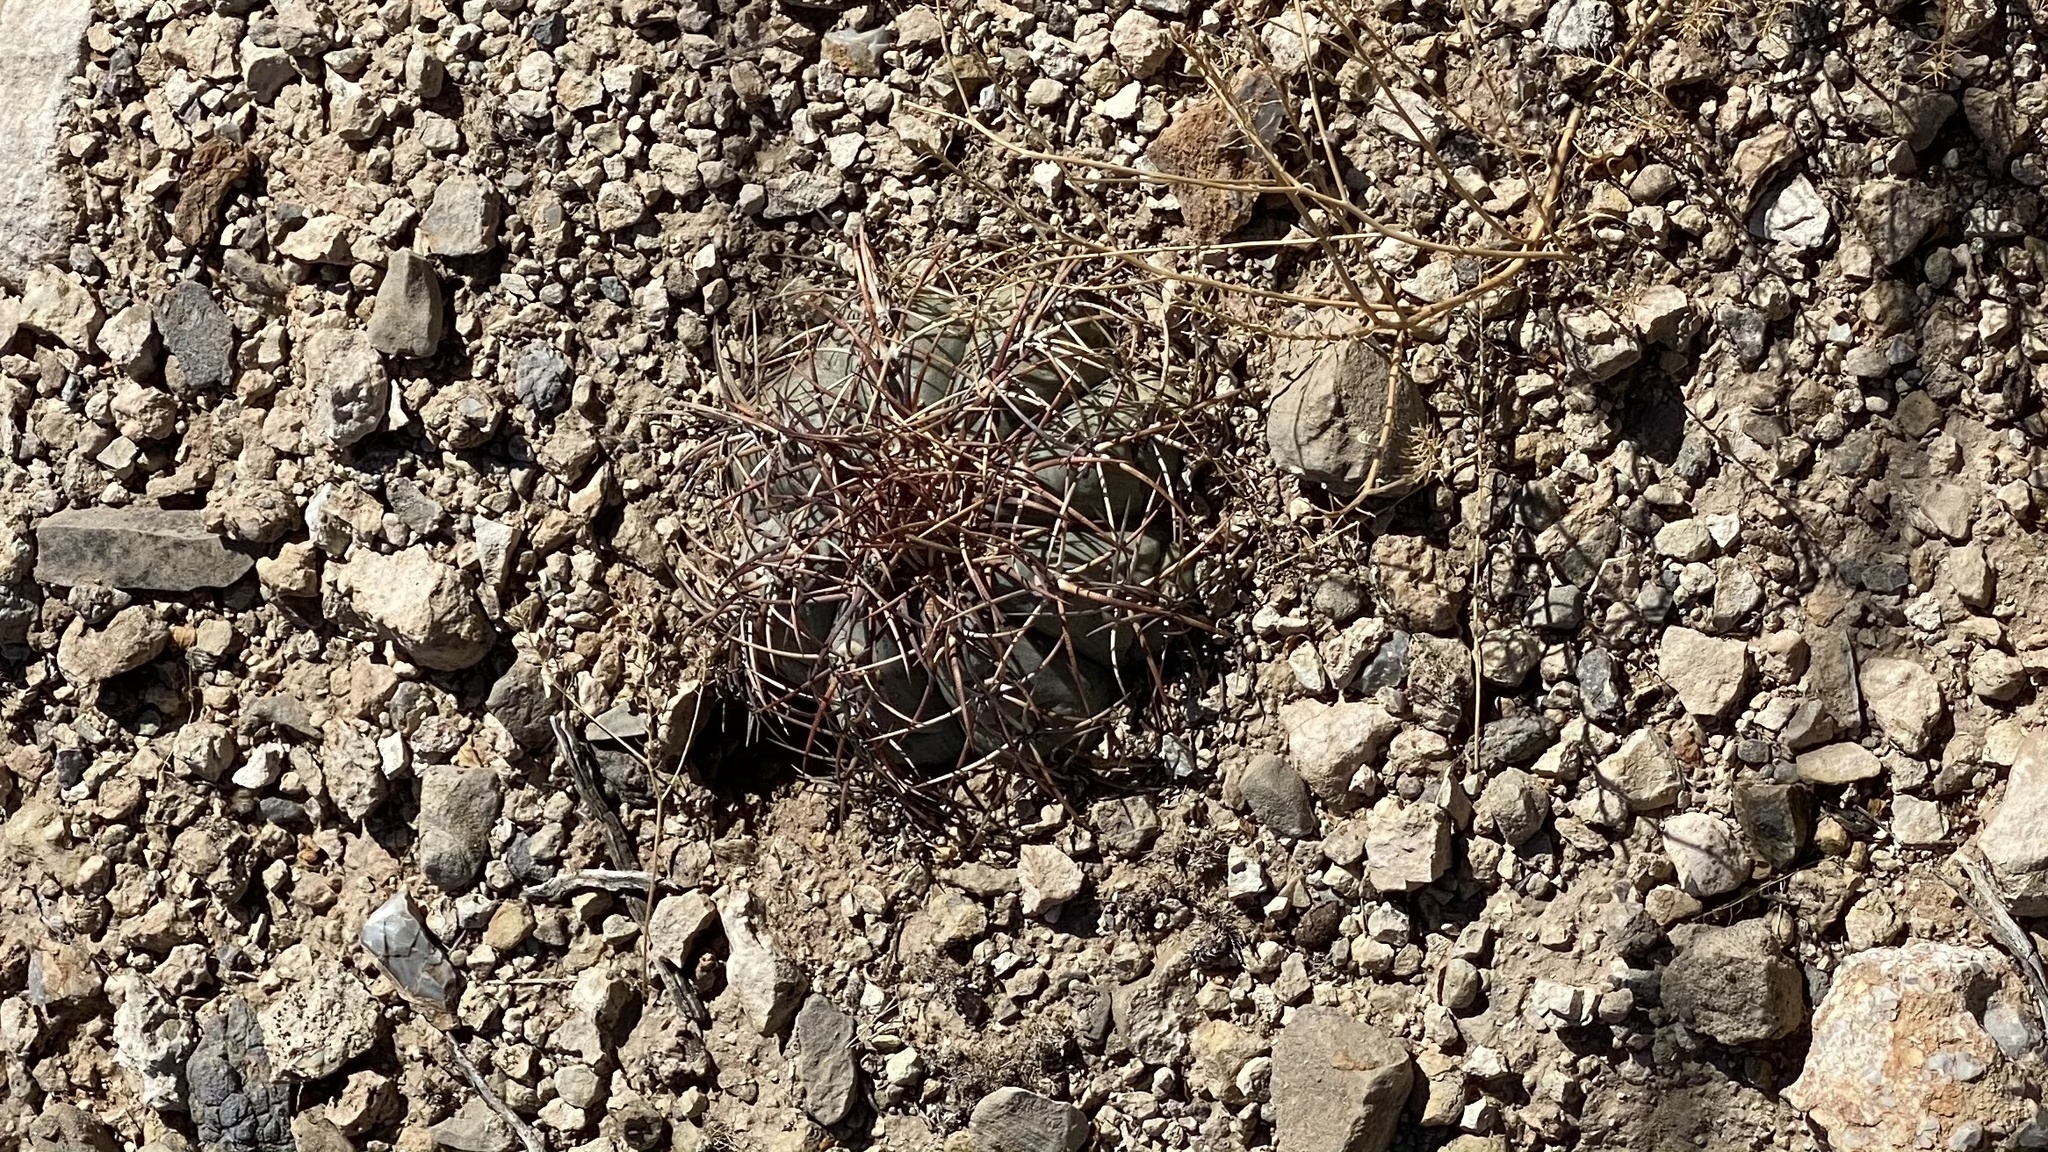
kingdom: Plantae
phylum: Tracheophyta
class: Magnoliopsida
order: Caryophyllales
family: Cactaceae
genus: Echinocactus
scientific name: Echinocactus horizonthalonius
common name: Devilshead
